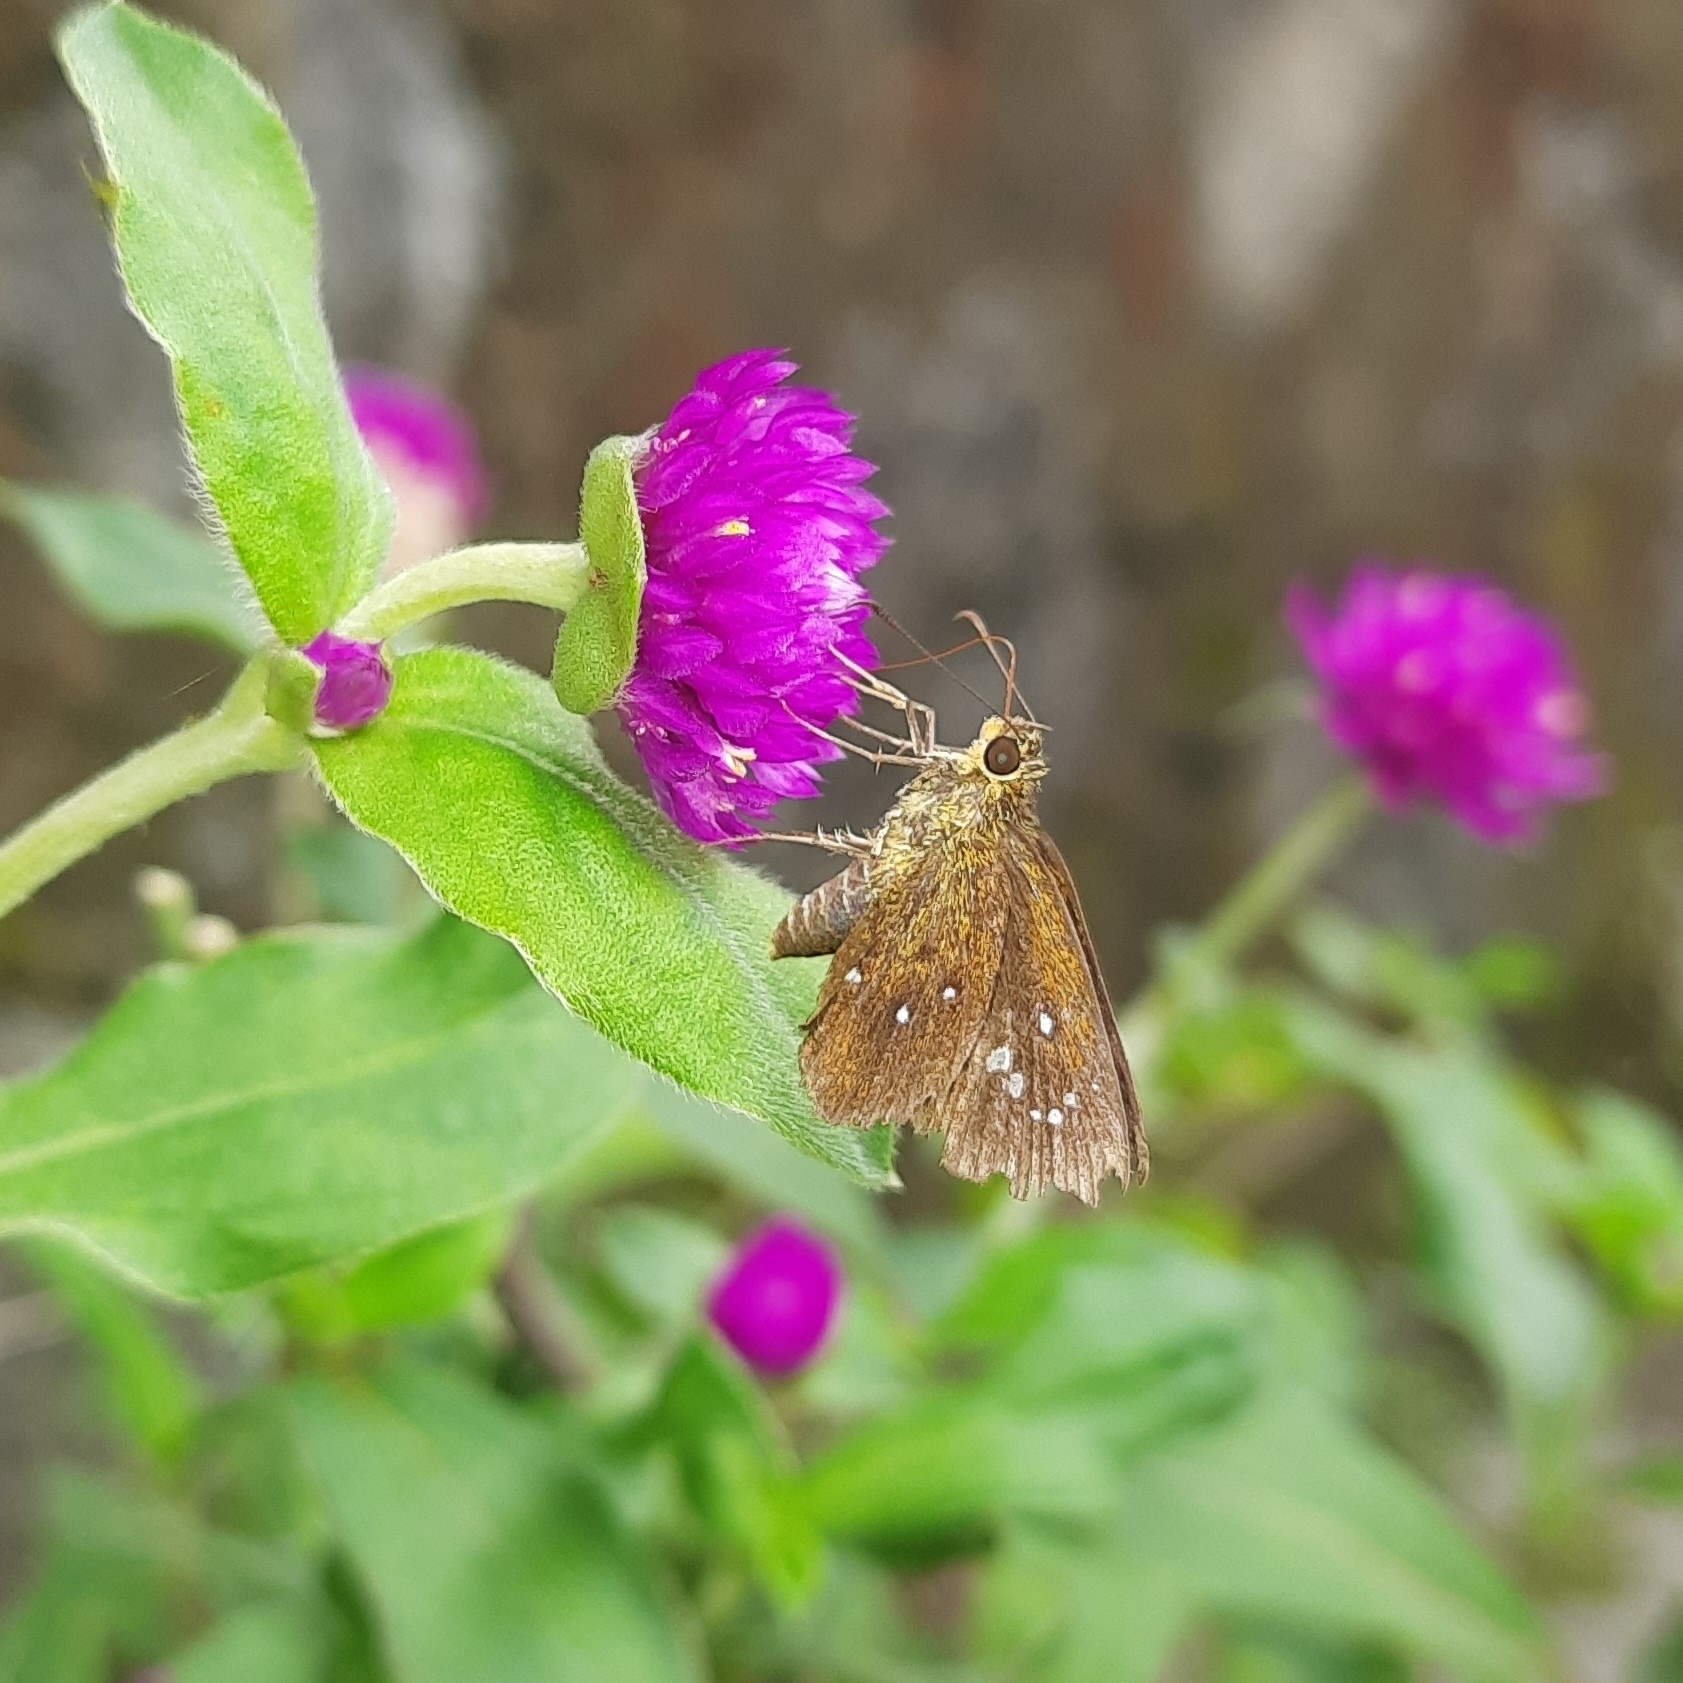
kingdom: Animalia
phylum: Arthropoda
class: Insecta
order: Lepidoptera
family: Hesperiidae
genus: Iambrix
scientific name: Iambrix salsala
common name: Chestnut bob
